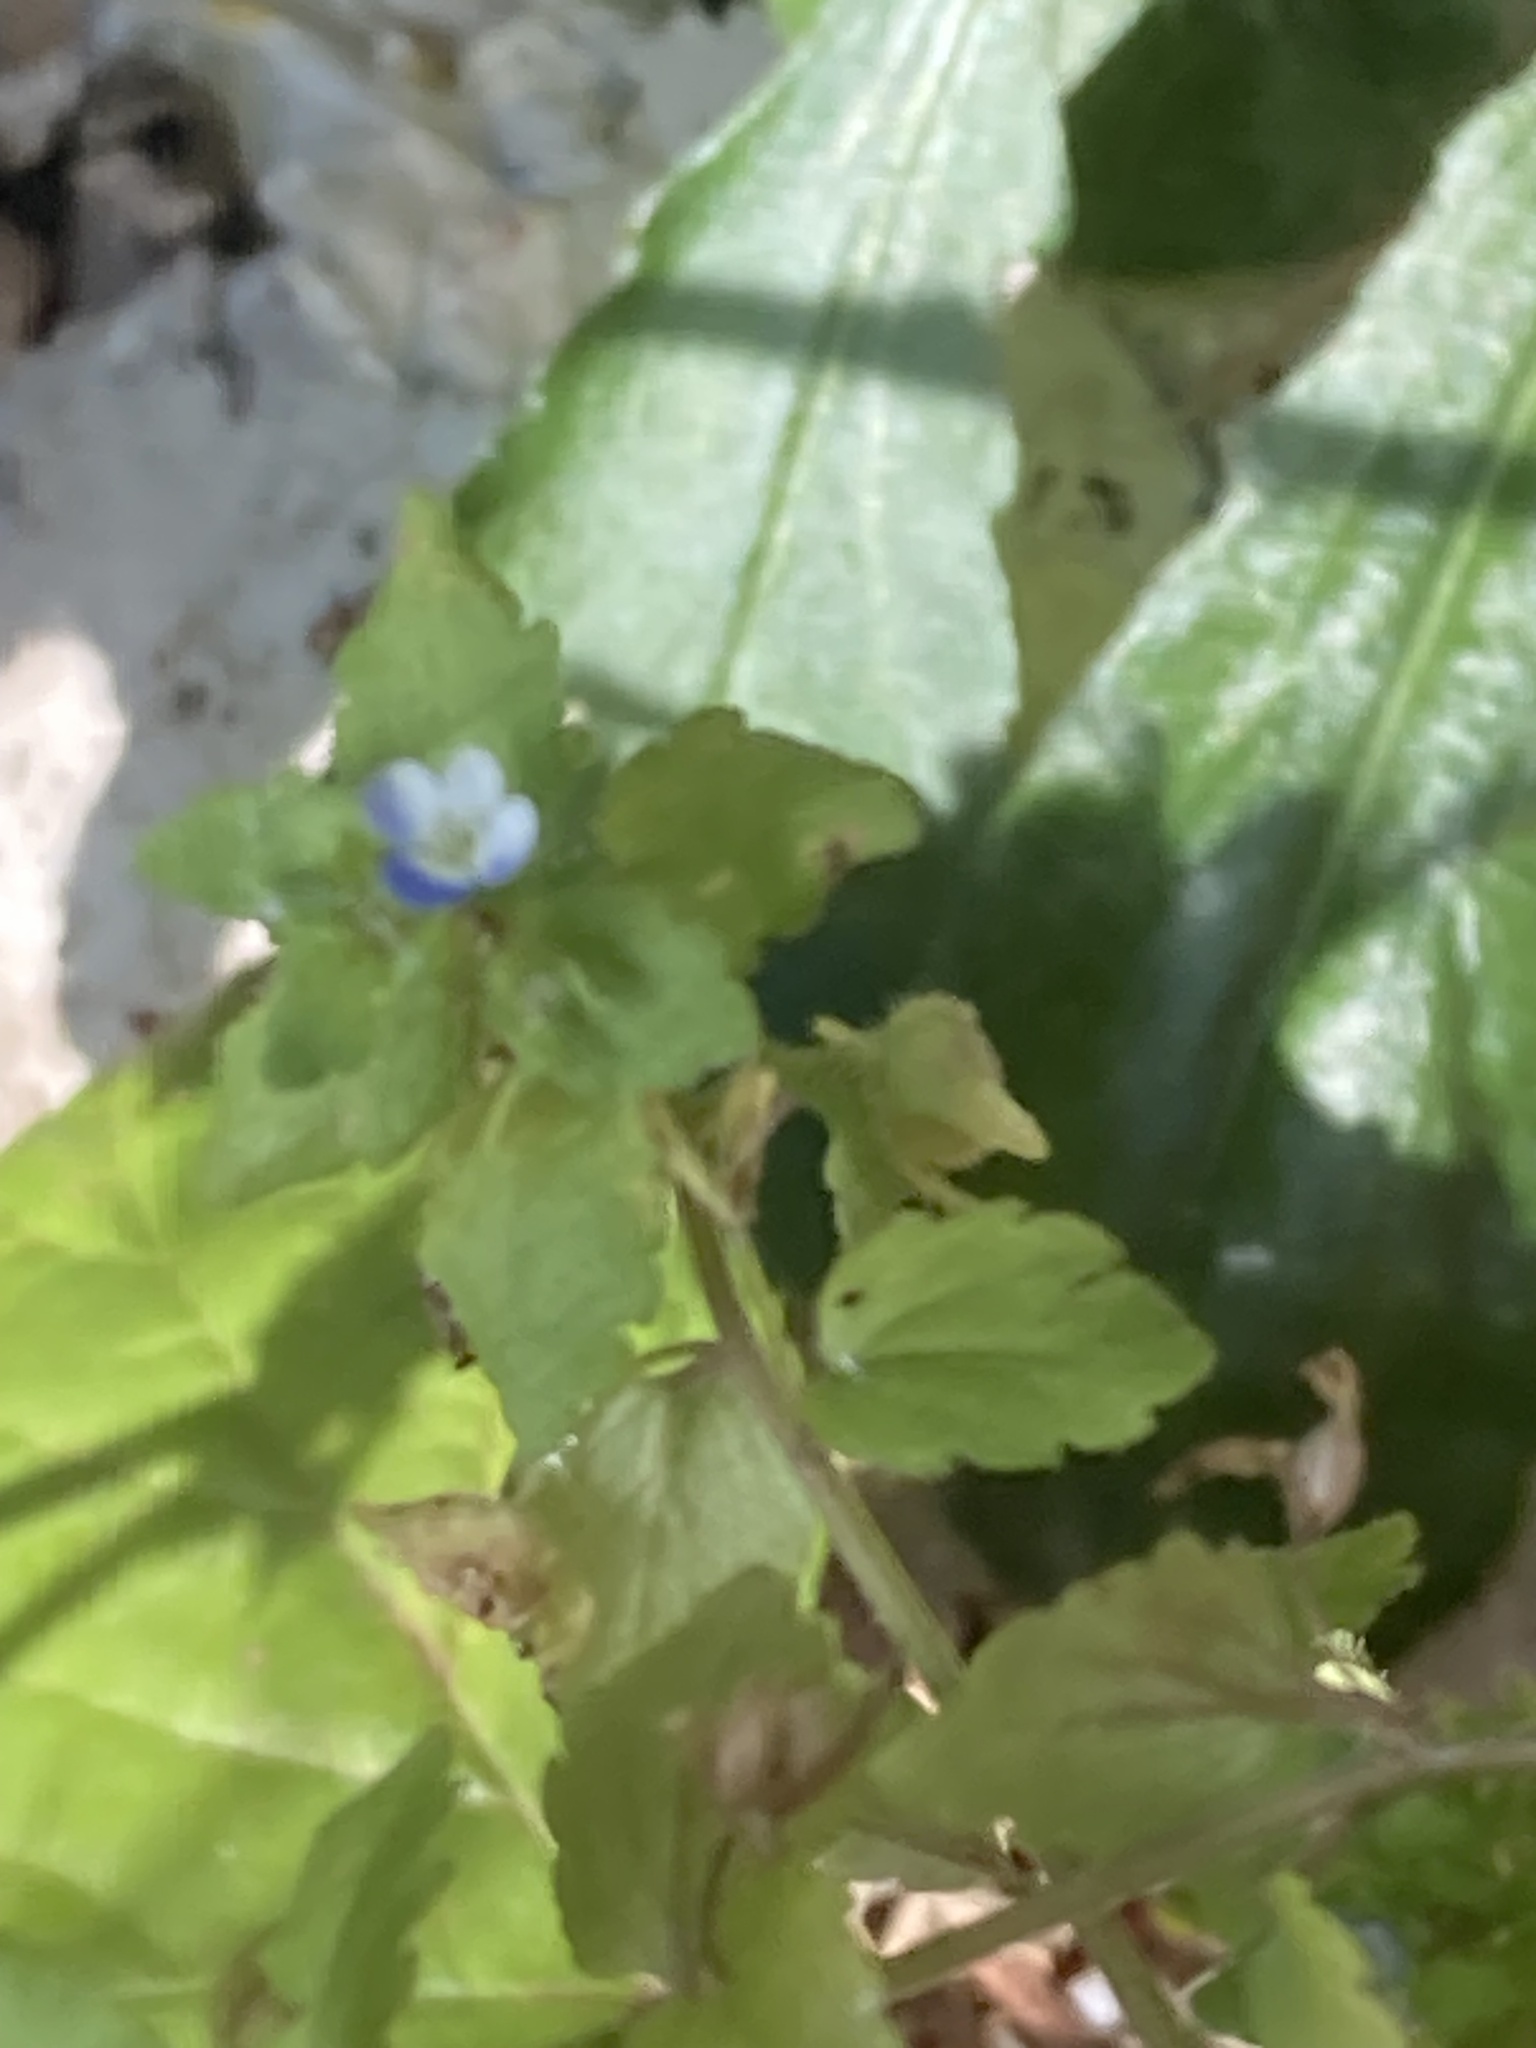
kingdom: Plantae
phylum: Tracheophyta
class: Magnoliopsida
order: Lamiales
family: Plantaginaceae
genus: Veronica
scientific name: Veronica agrestis
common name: Green field-speedwell
